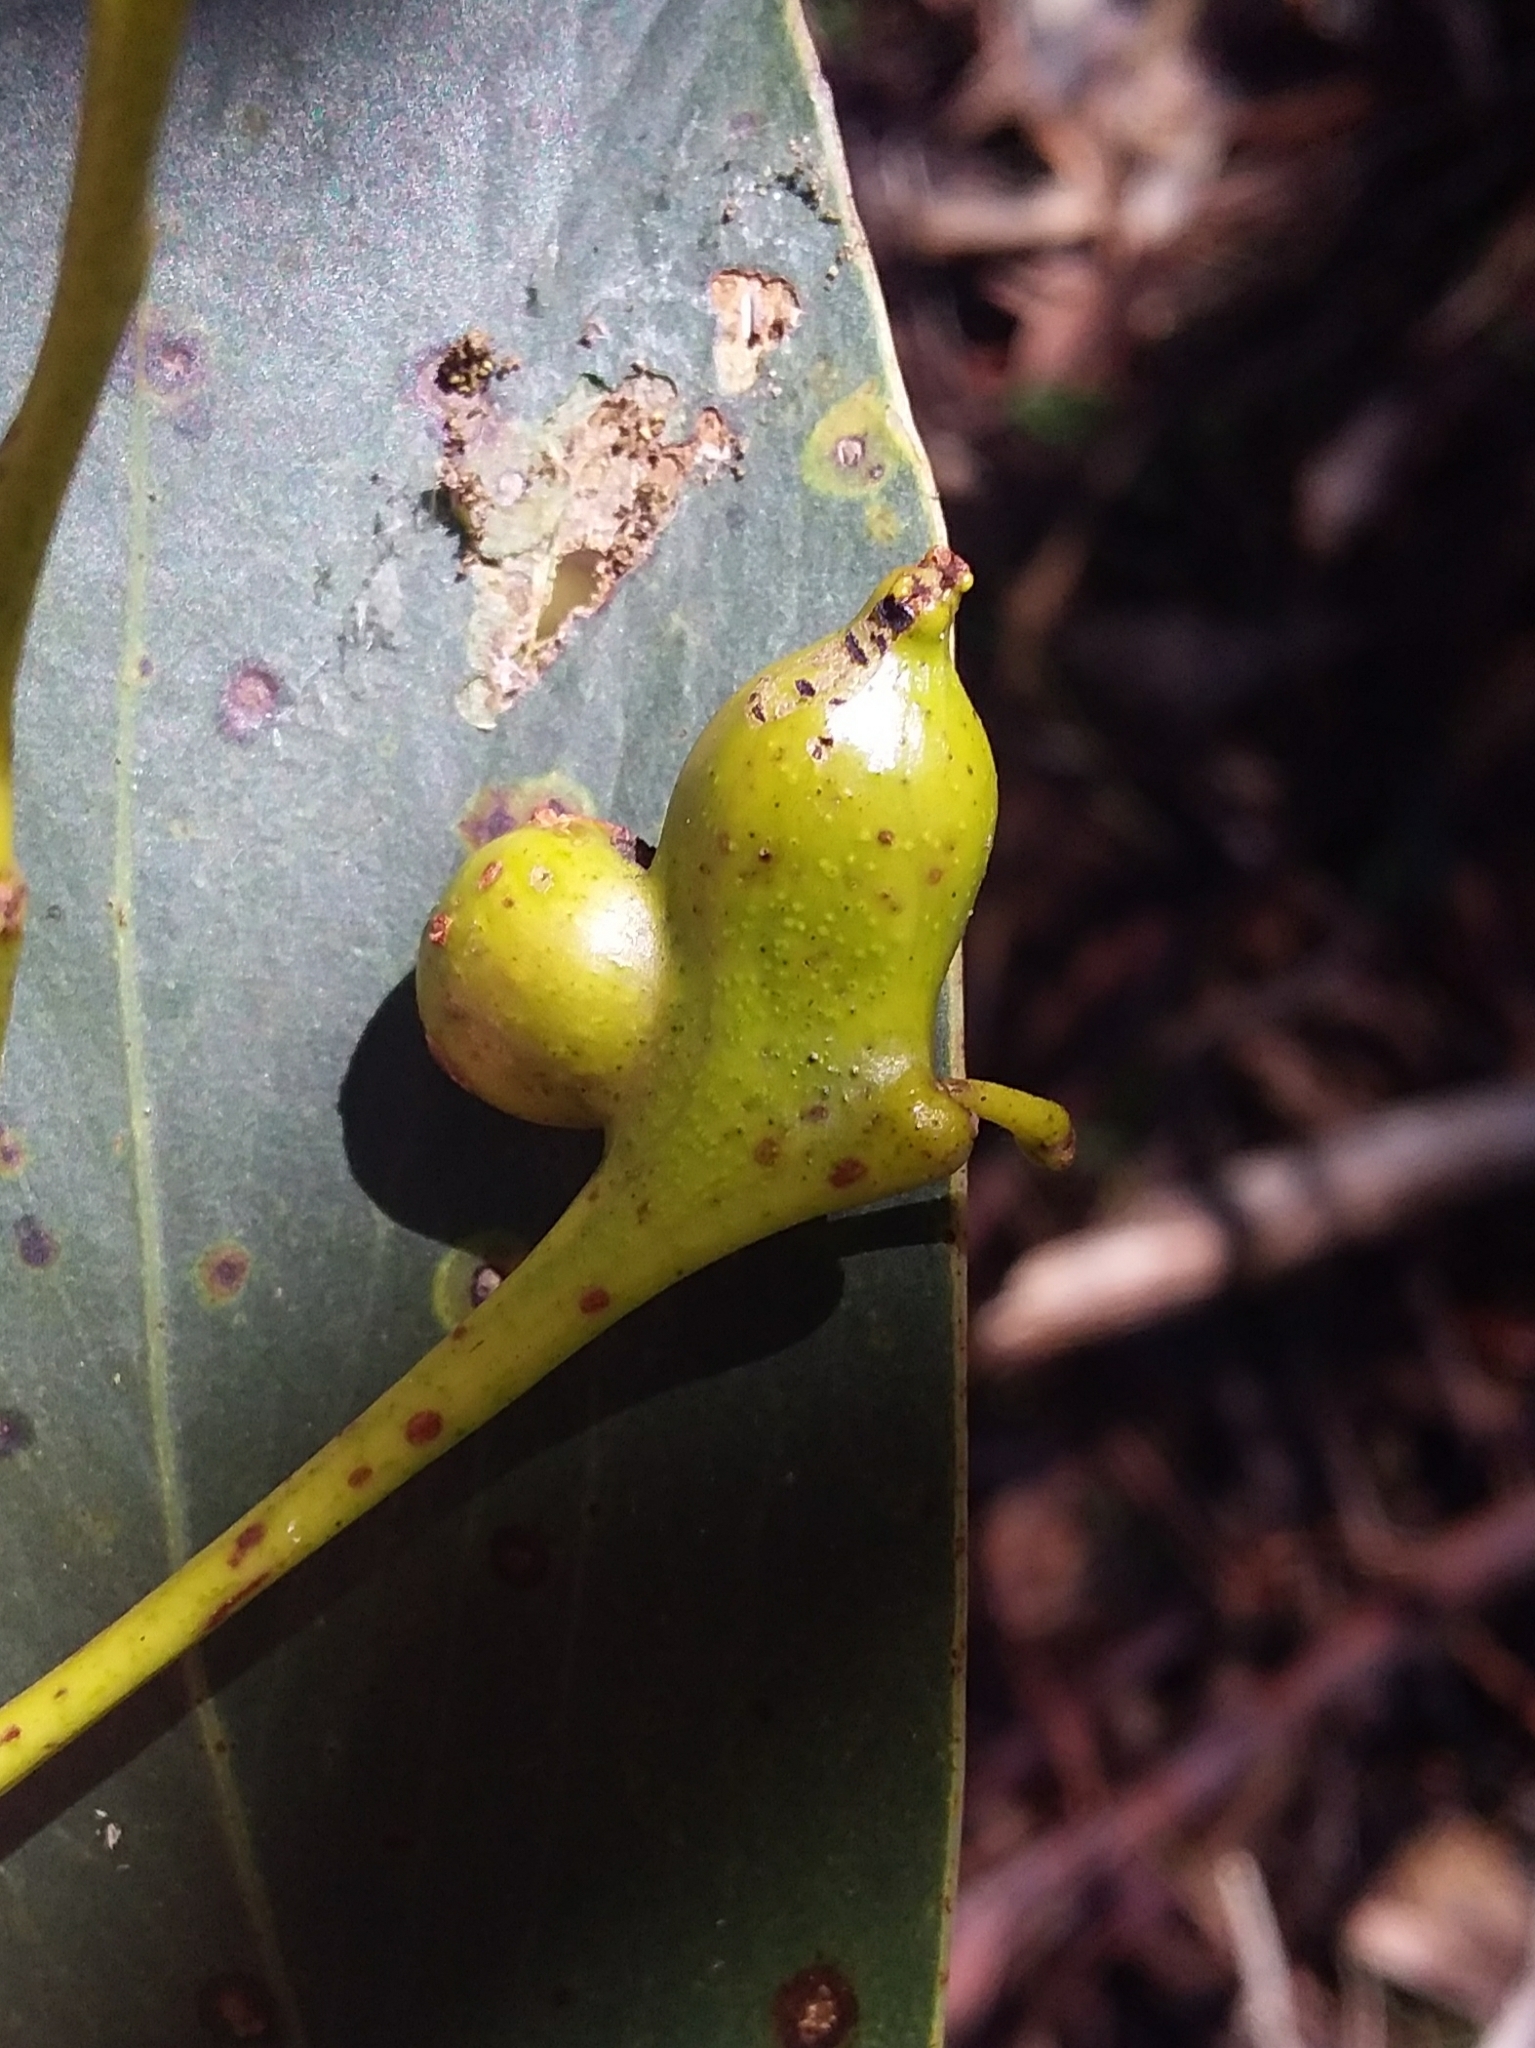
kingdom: Animalia
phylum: Arthropoda
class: Insecta
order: Hymenoptera
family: Pteromalidae
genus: Trichilogaster
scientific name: Trichilogaster signiventris
